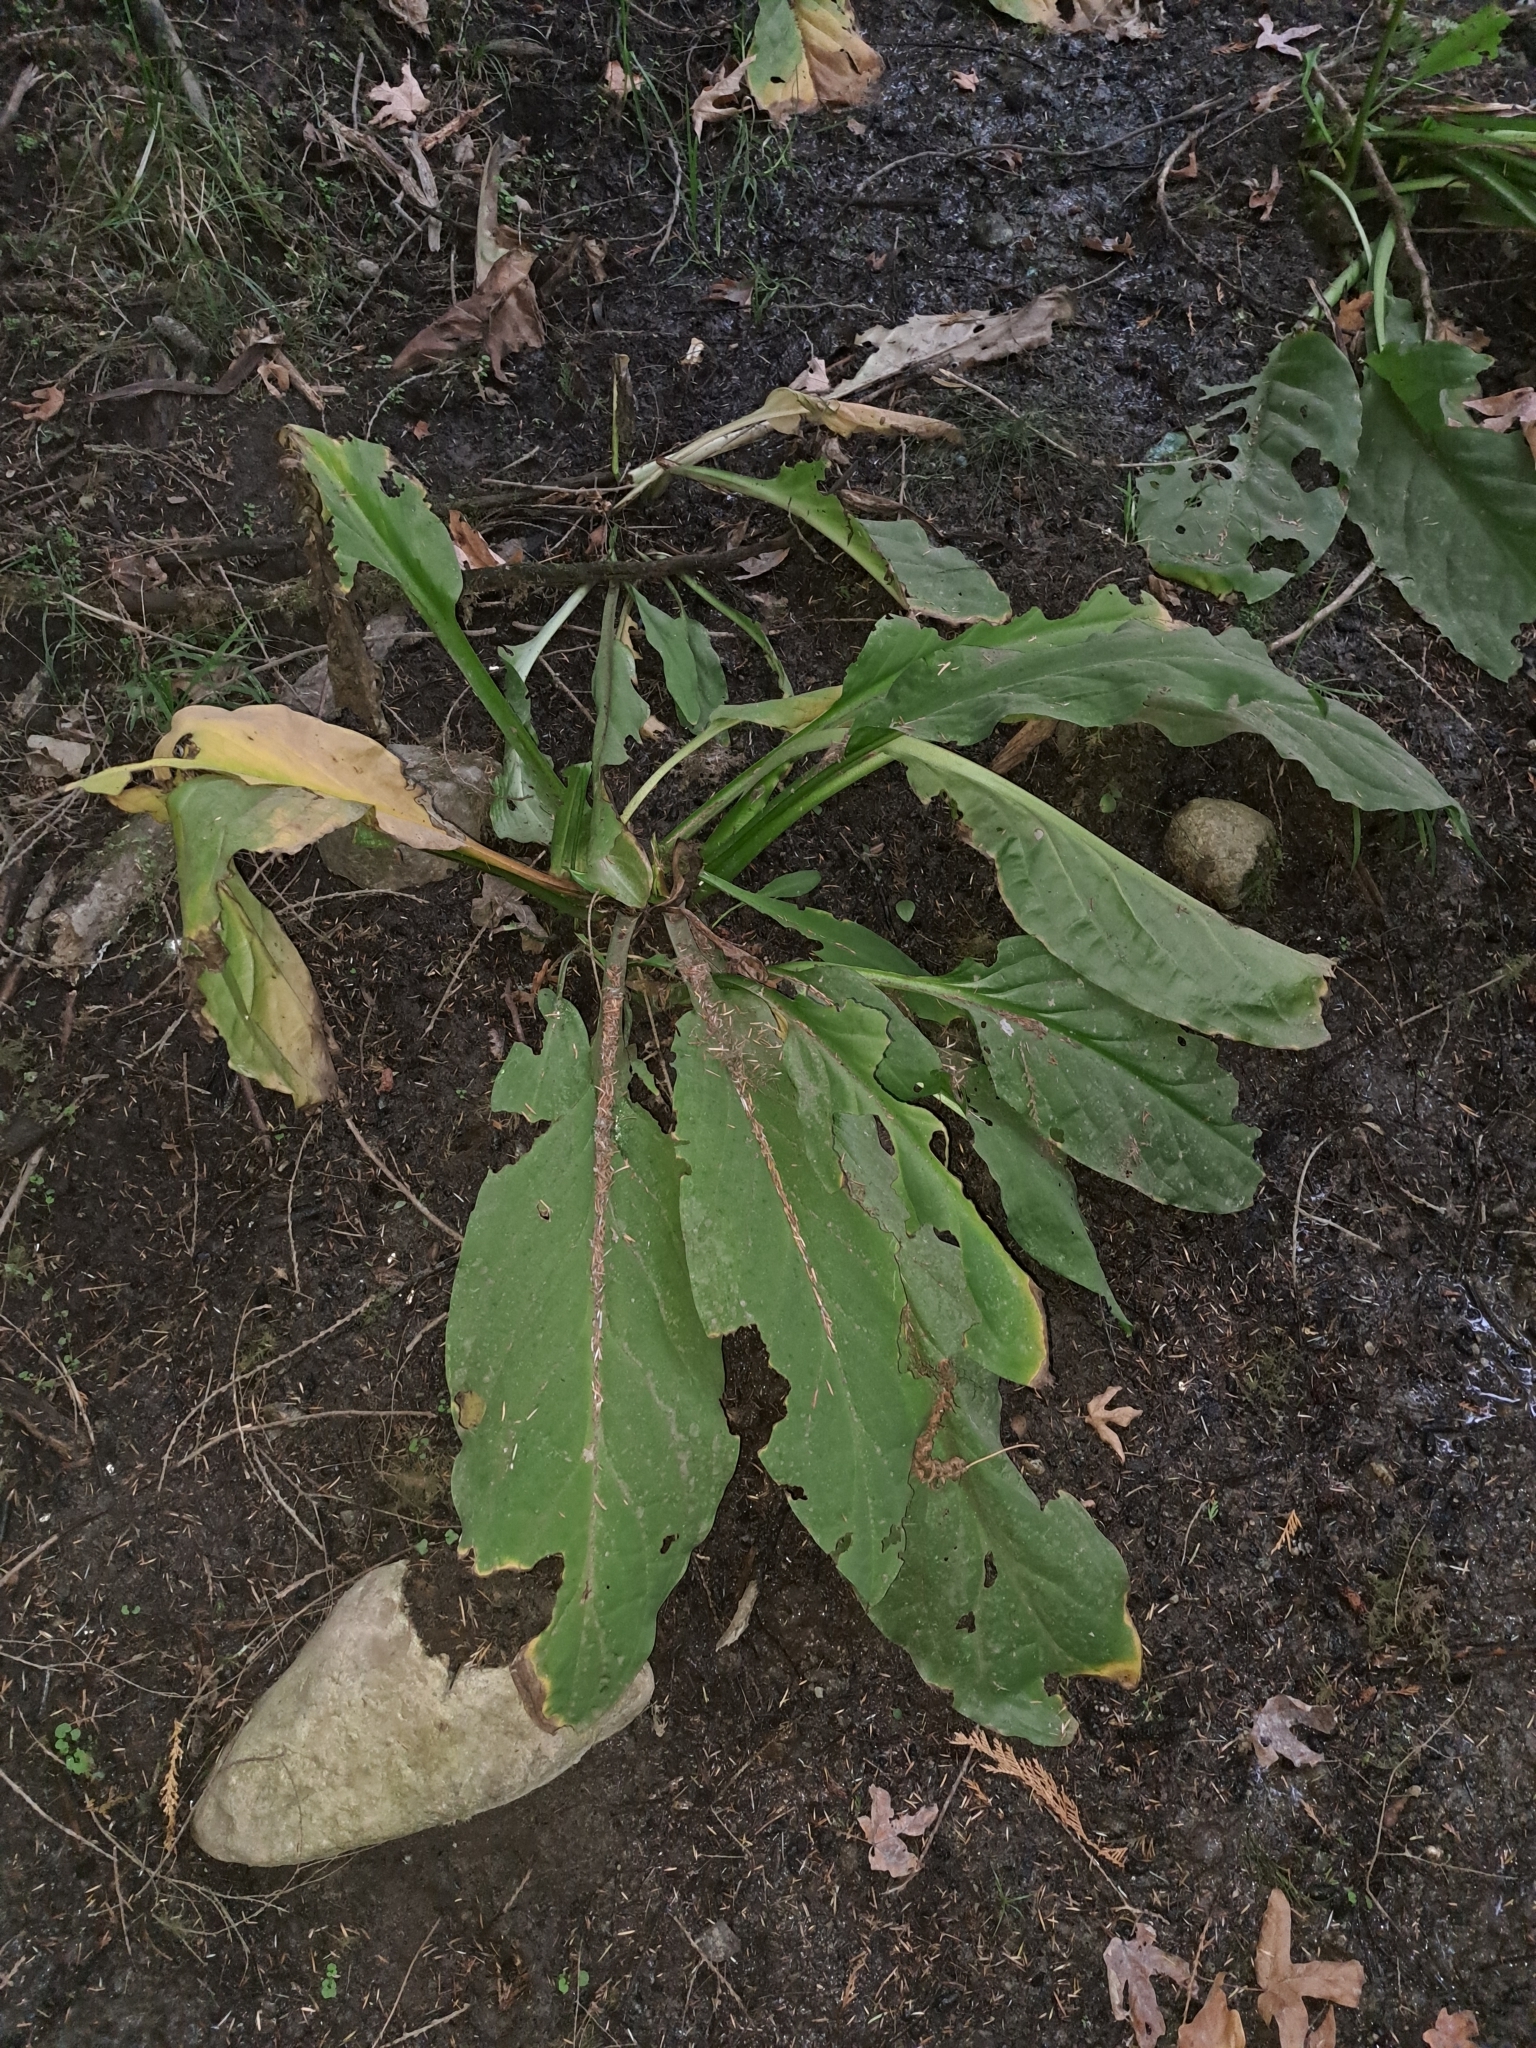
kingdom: Plantae
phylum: Tracheophyta
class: Liliopsida
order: Alismatales
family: Araceae
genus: Lysichiton
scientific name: Lysichiton americanus
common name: American skunk cabbage
